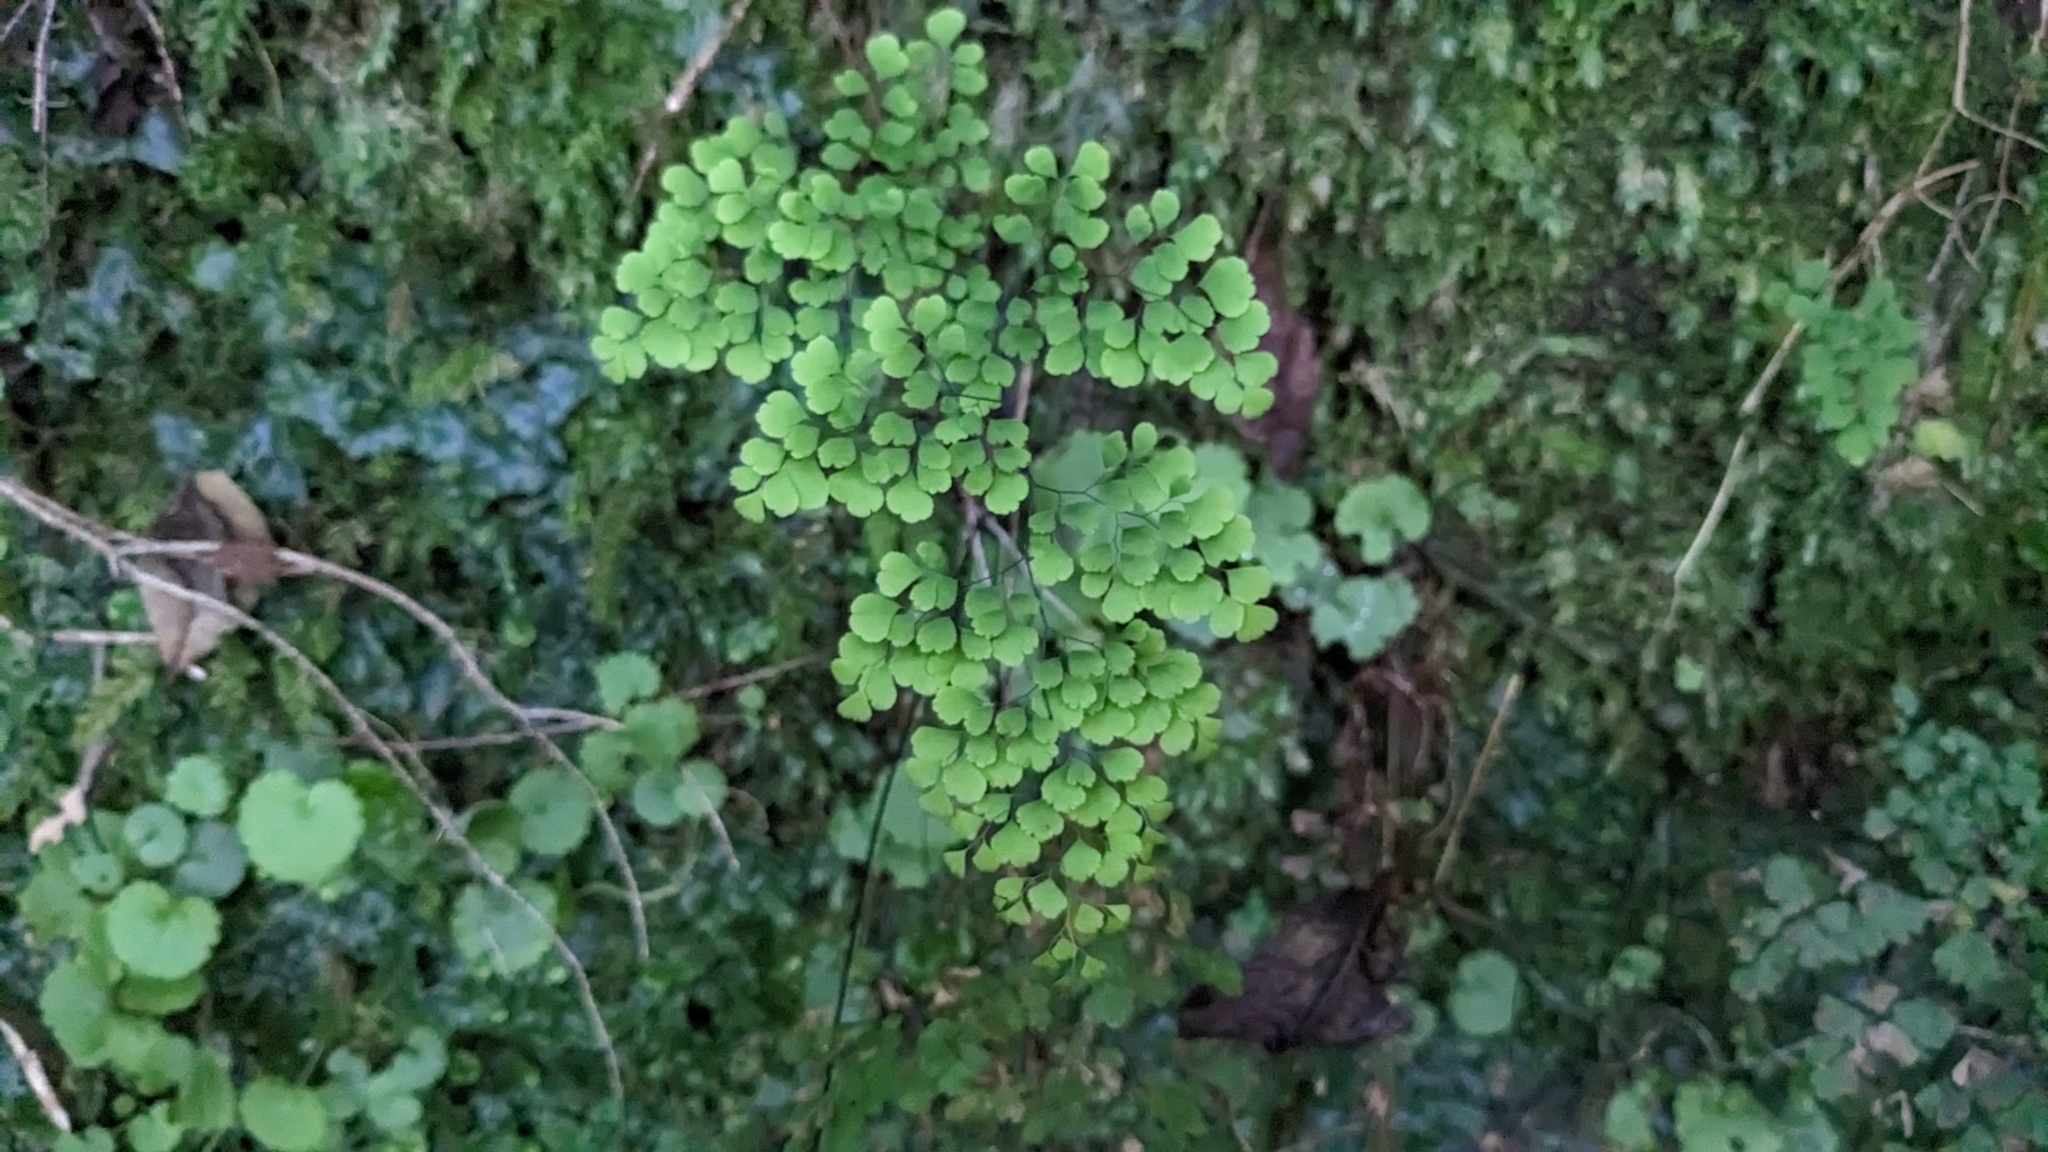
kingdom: Plantae
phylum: Tracheophyta
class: Polypodiopsida
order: Polypodiales
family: Pteridaceae
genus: Adiantum
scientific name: Adiantum raddianum
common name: Delta maidenhair fern
